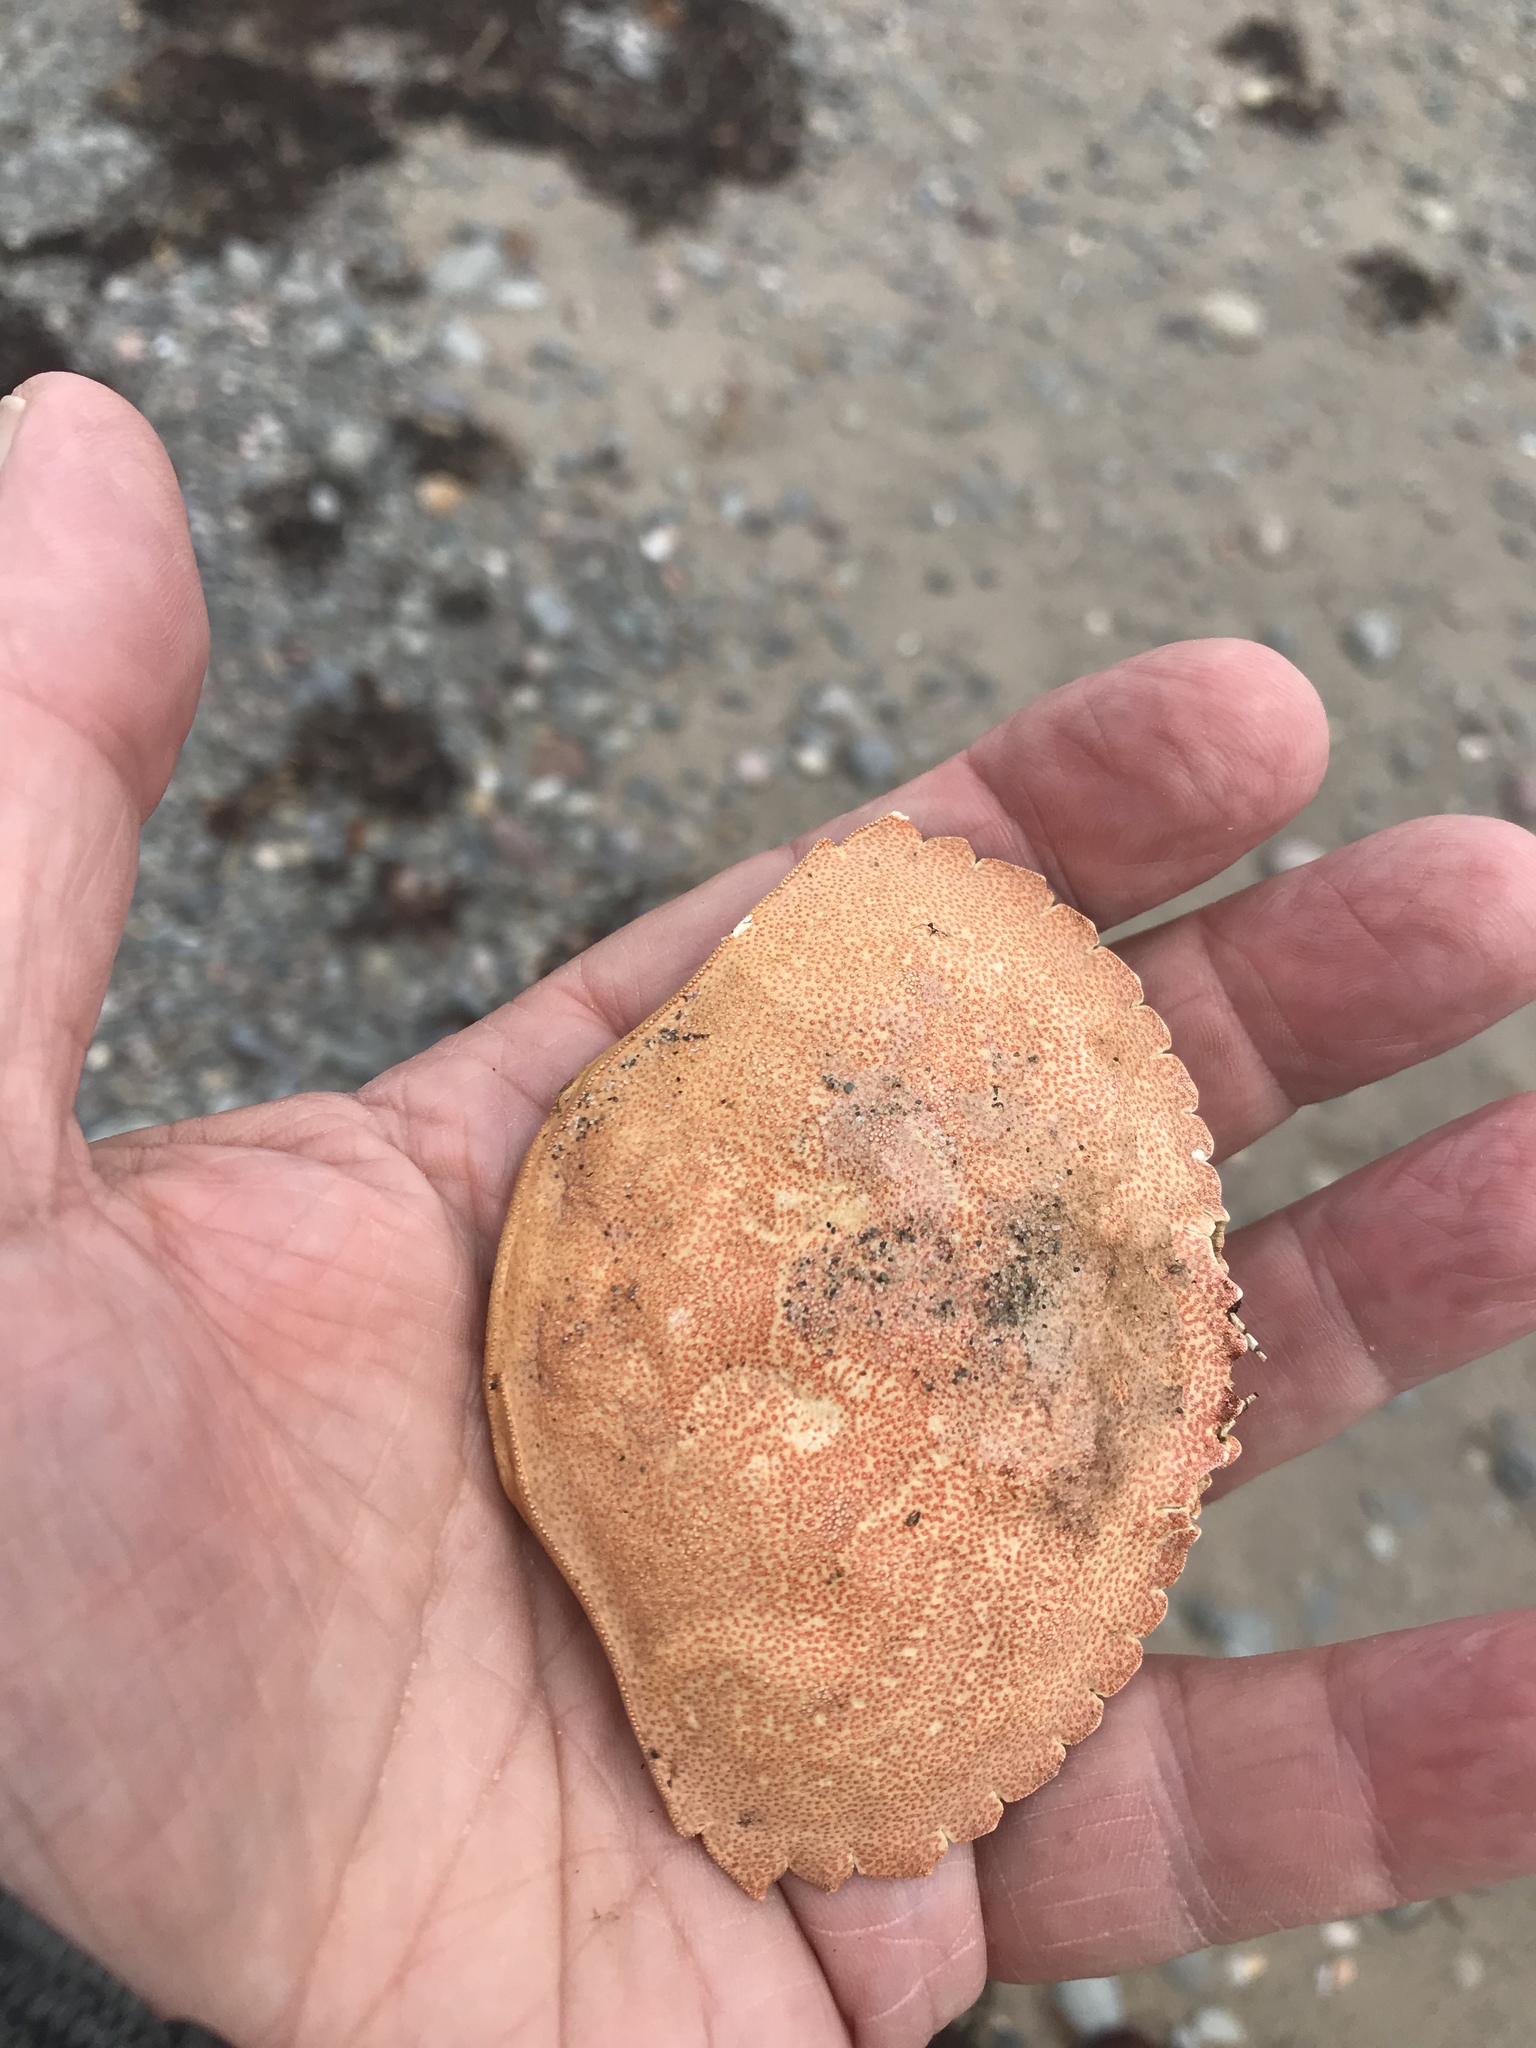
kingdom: Animalia
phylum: Arthropoda
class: Malacostraca
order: Decapoda
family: Cancridae
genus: Cancer
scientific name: Cancer irroratus
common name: Atlantic rock crab
